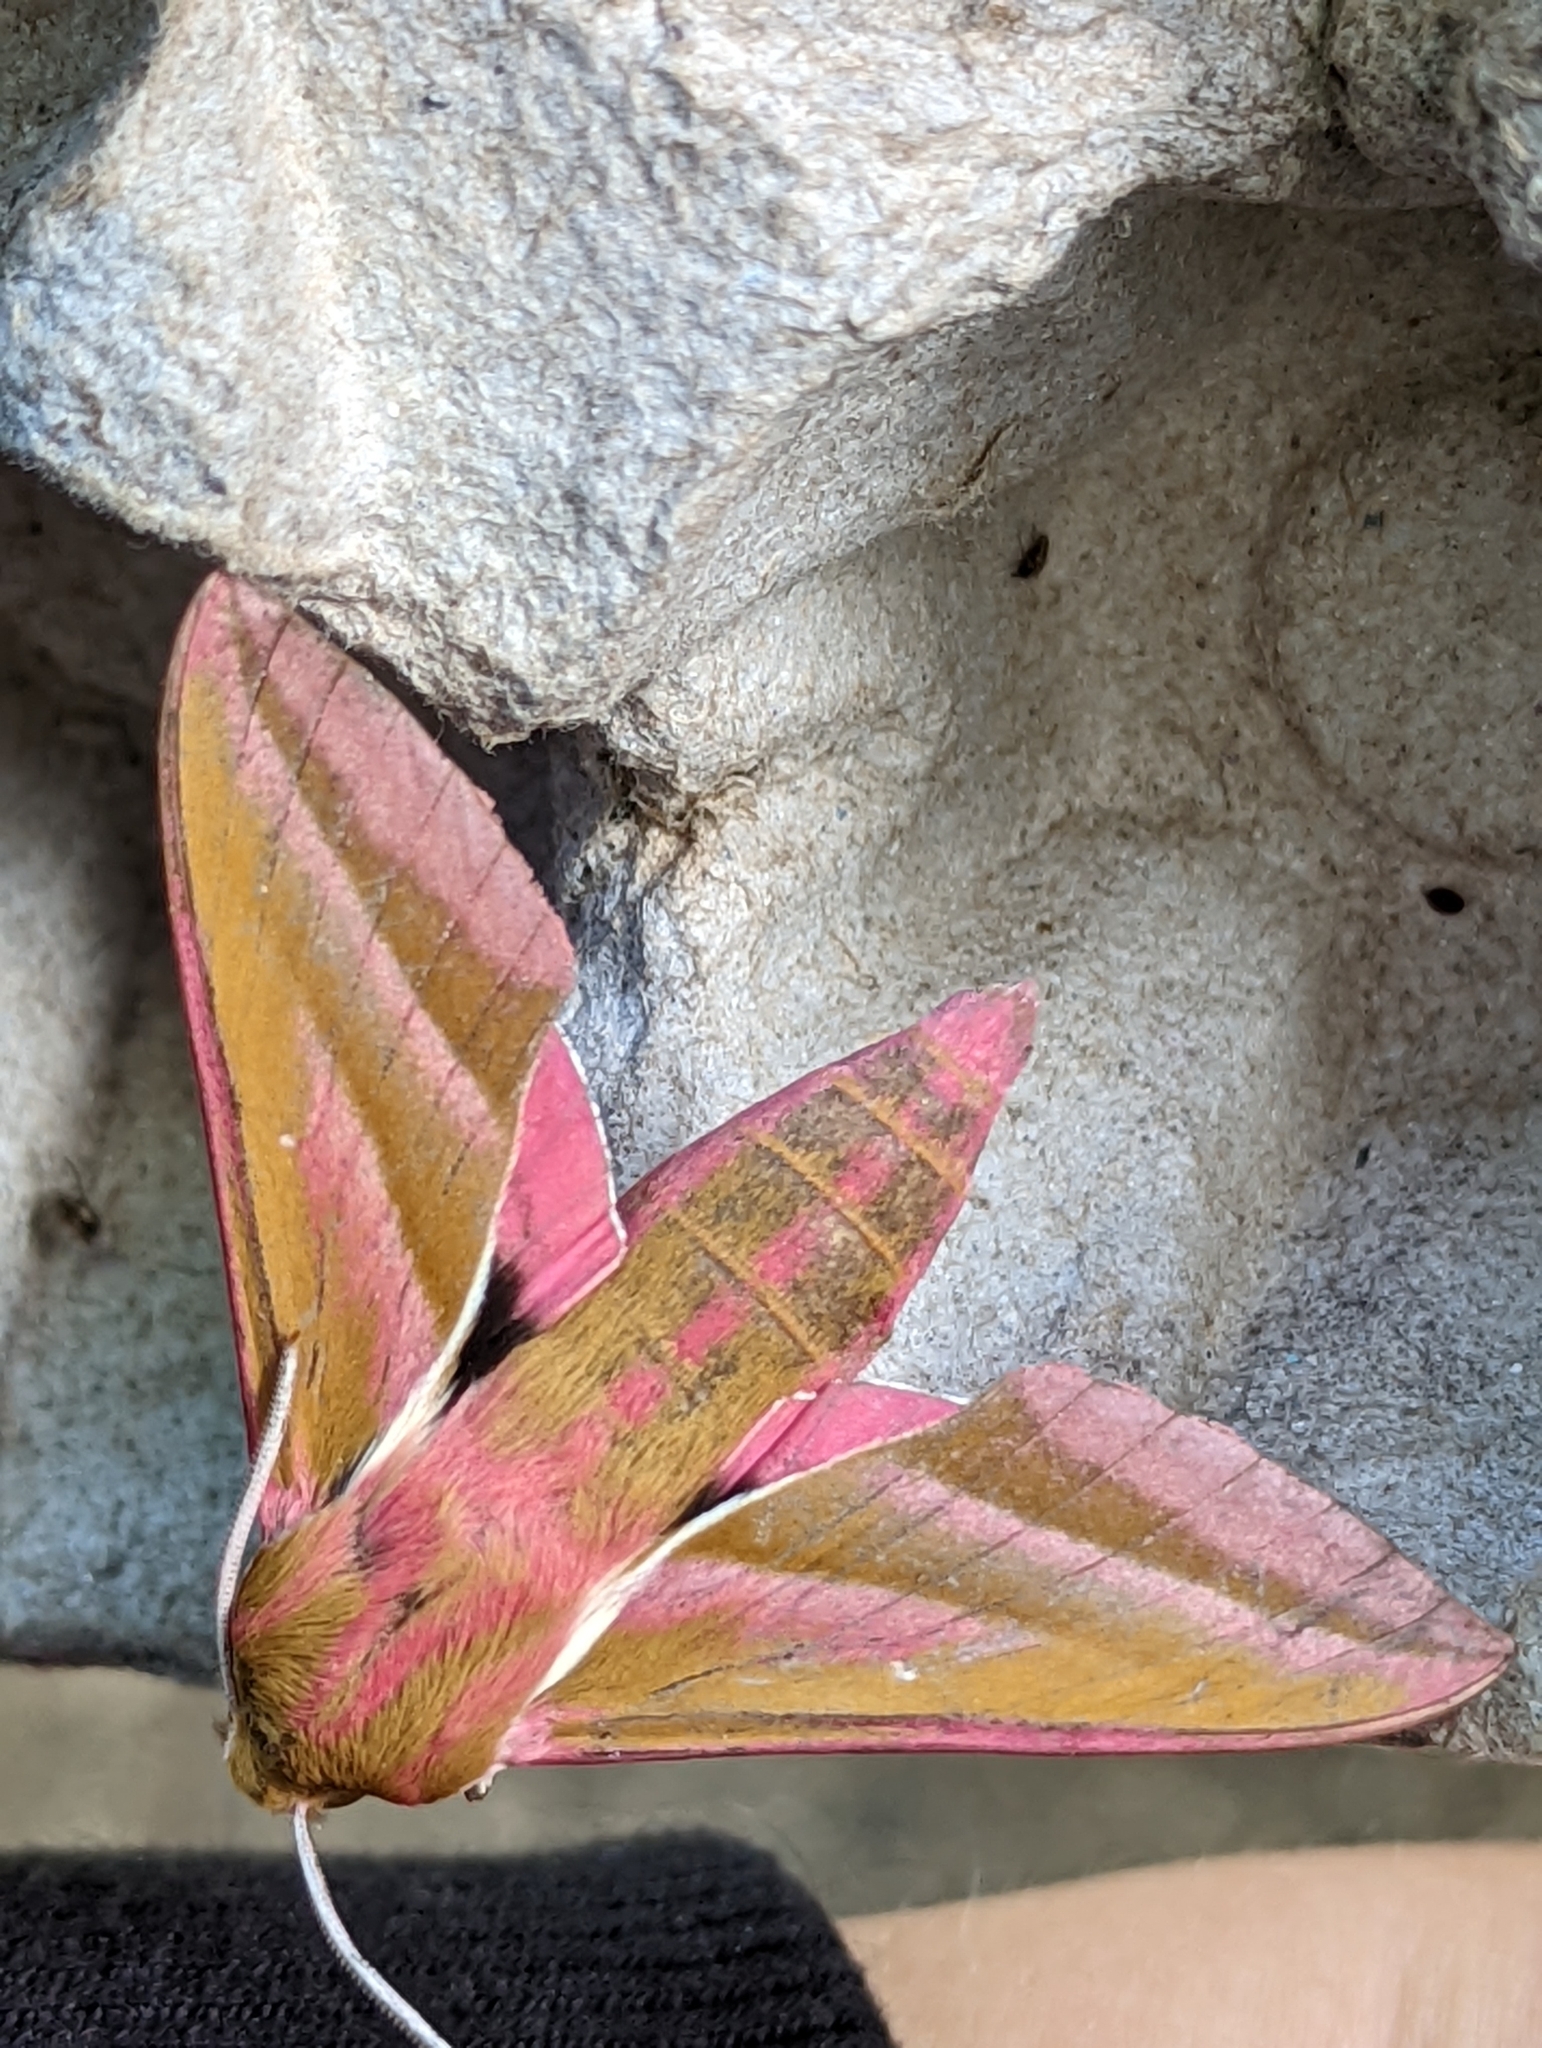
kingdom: Animalia
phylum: Arthropoda
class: Insecta
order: Lepidoptera
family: Sphingidae
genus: Deilephila
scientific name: Deilephila elpenor
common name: Elephant hawk-moth
